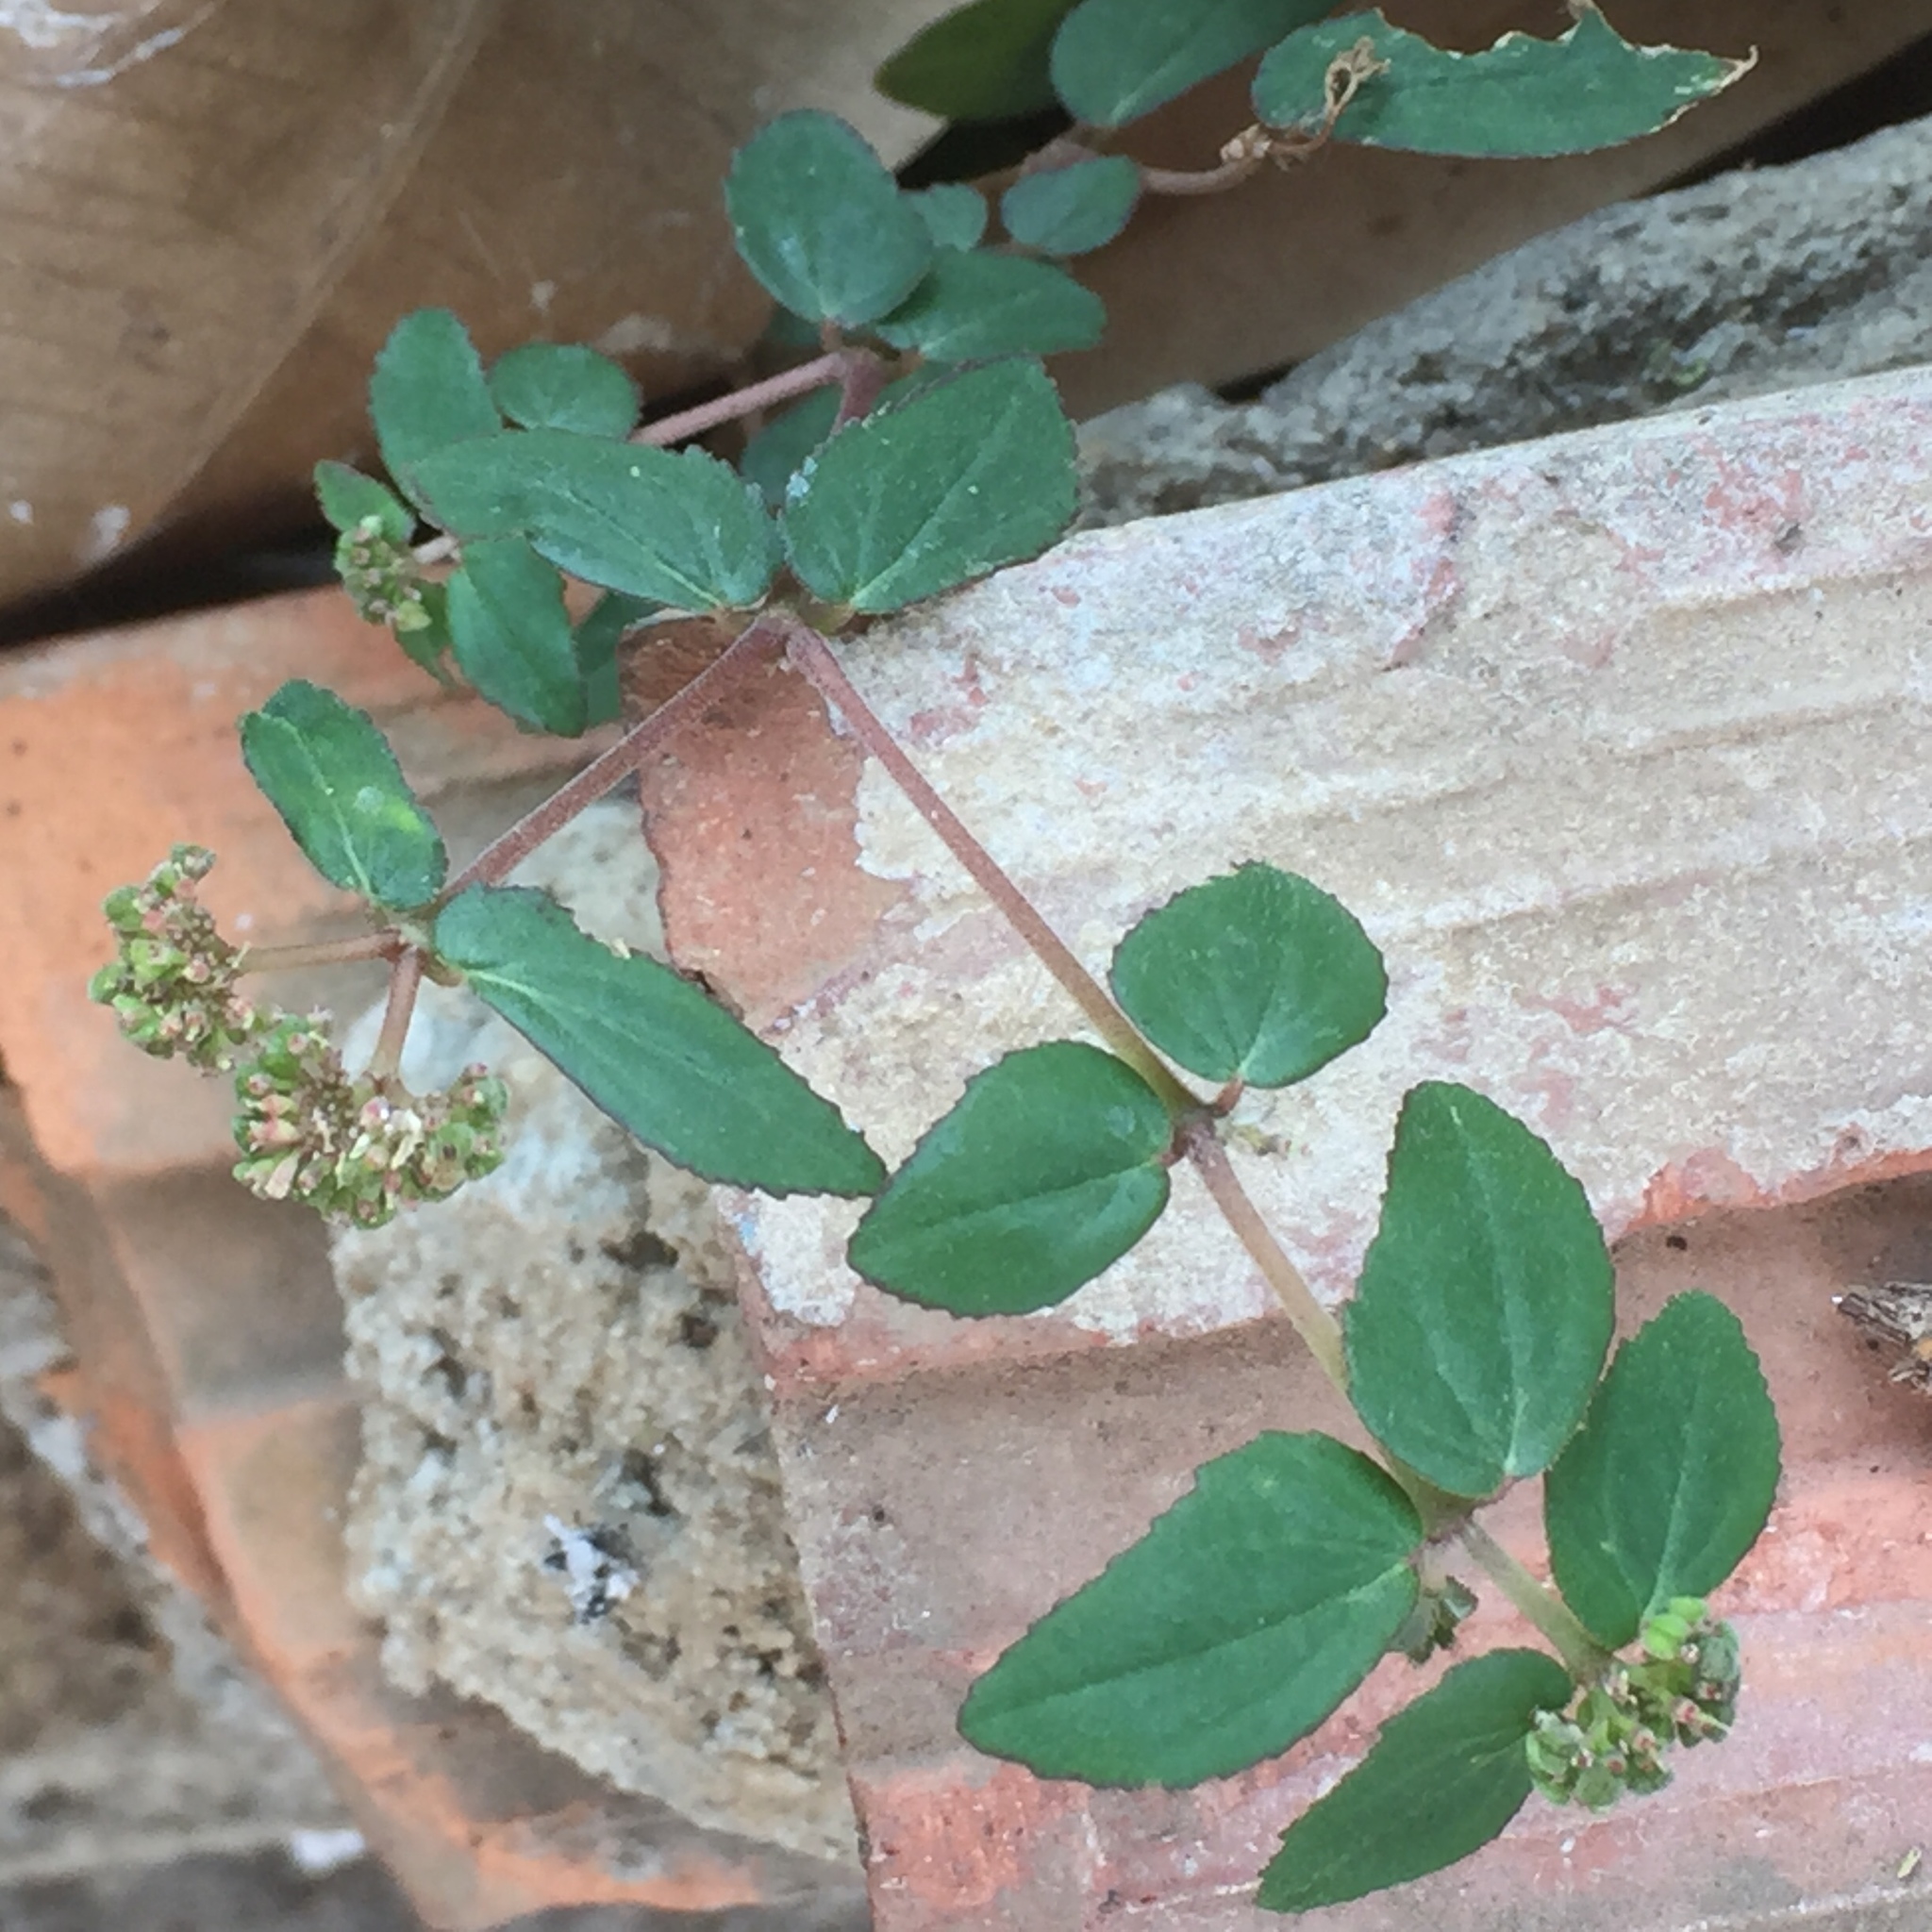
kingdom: Plantae
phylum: Tracheophyta
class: Magnoliopsida
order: Malpighiales
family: Euphorbiaceae
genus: Euphorbia
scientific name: Euphorbia ophthalmica
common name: Florida hammock sandmat
